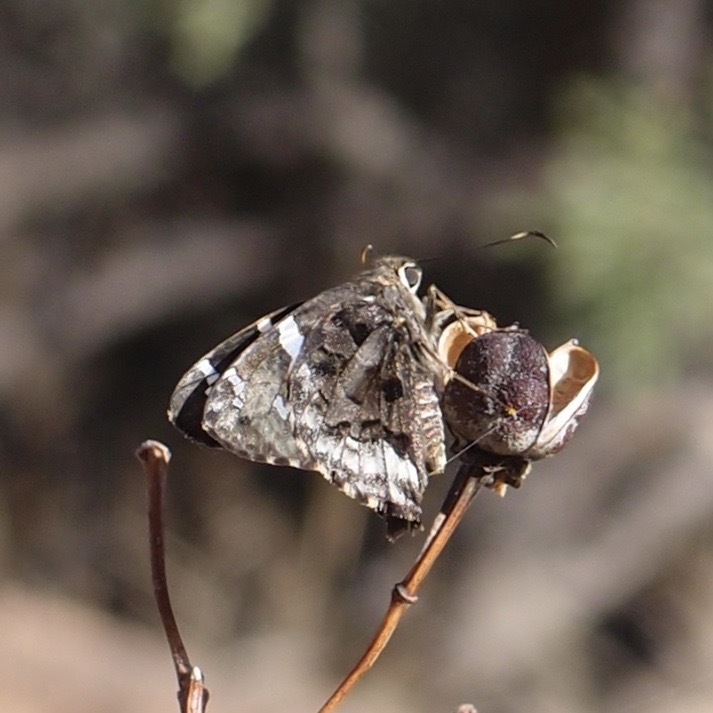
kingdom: Animalia
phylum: Arthropoda
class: Insecta
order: Lepidoptera
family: Hesperiidae
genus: Codatractus
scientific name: Codatractus arizonensis
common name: Arizona skipper
